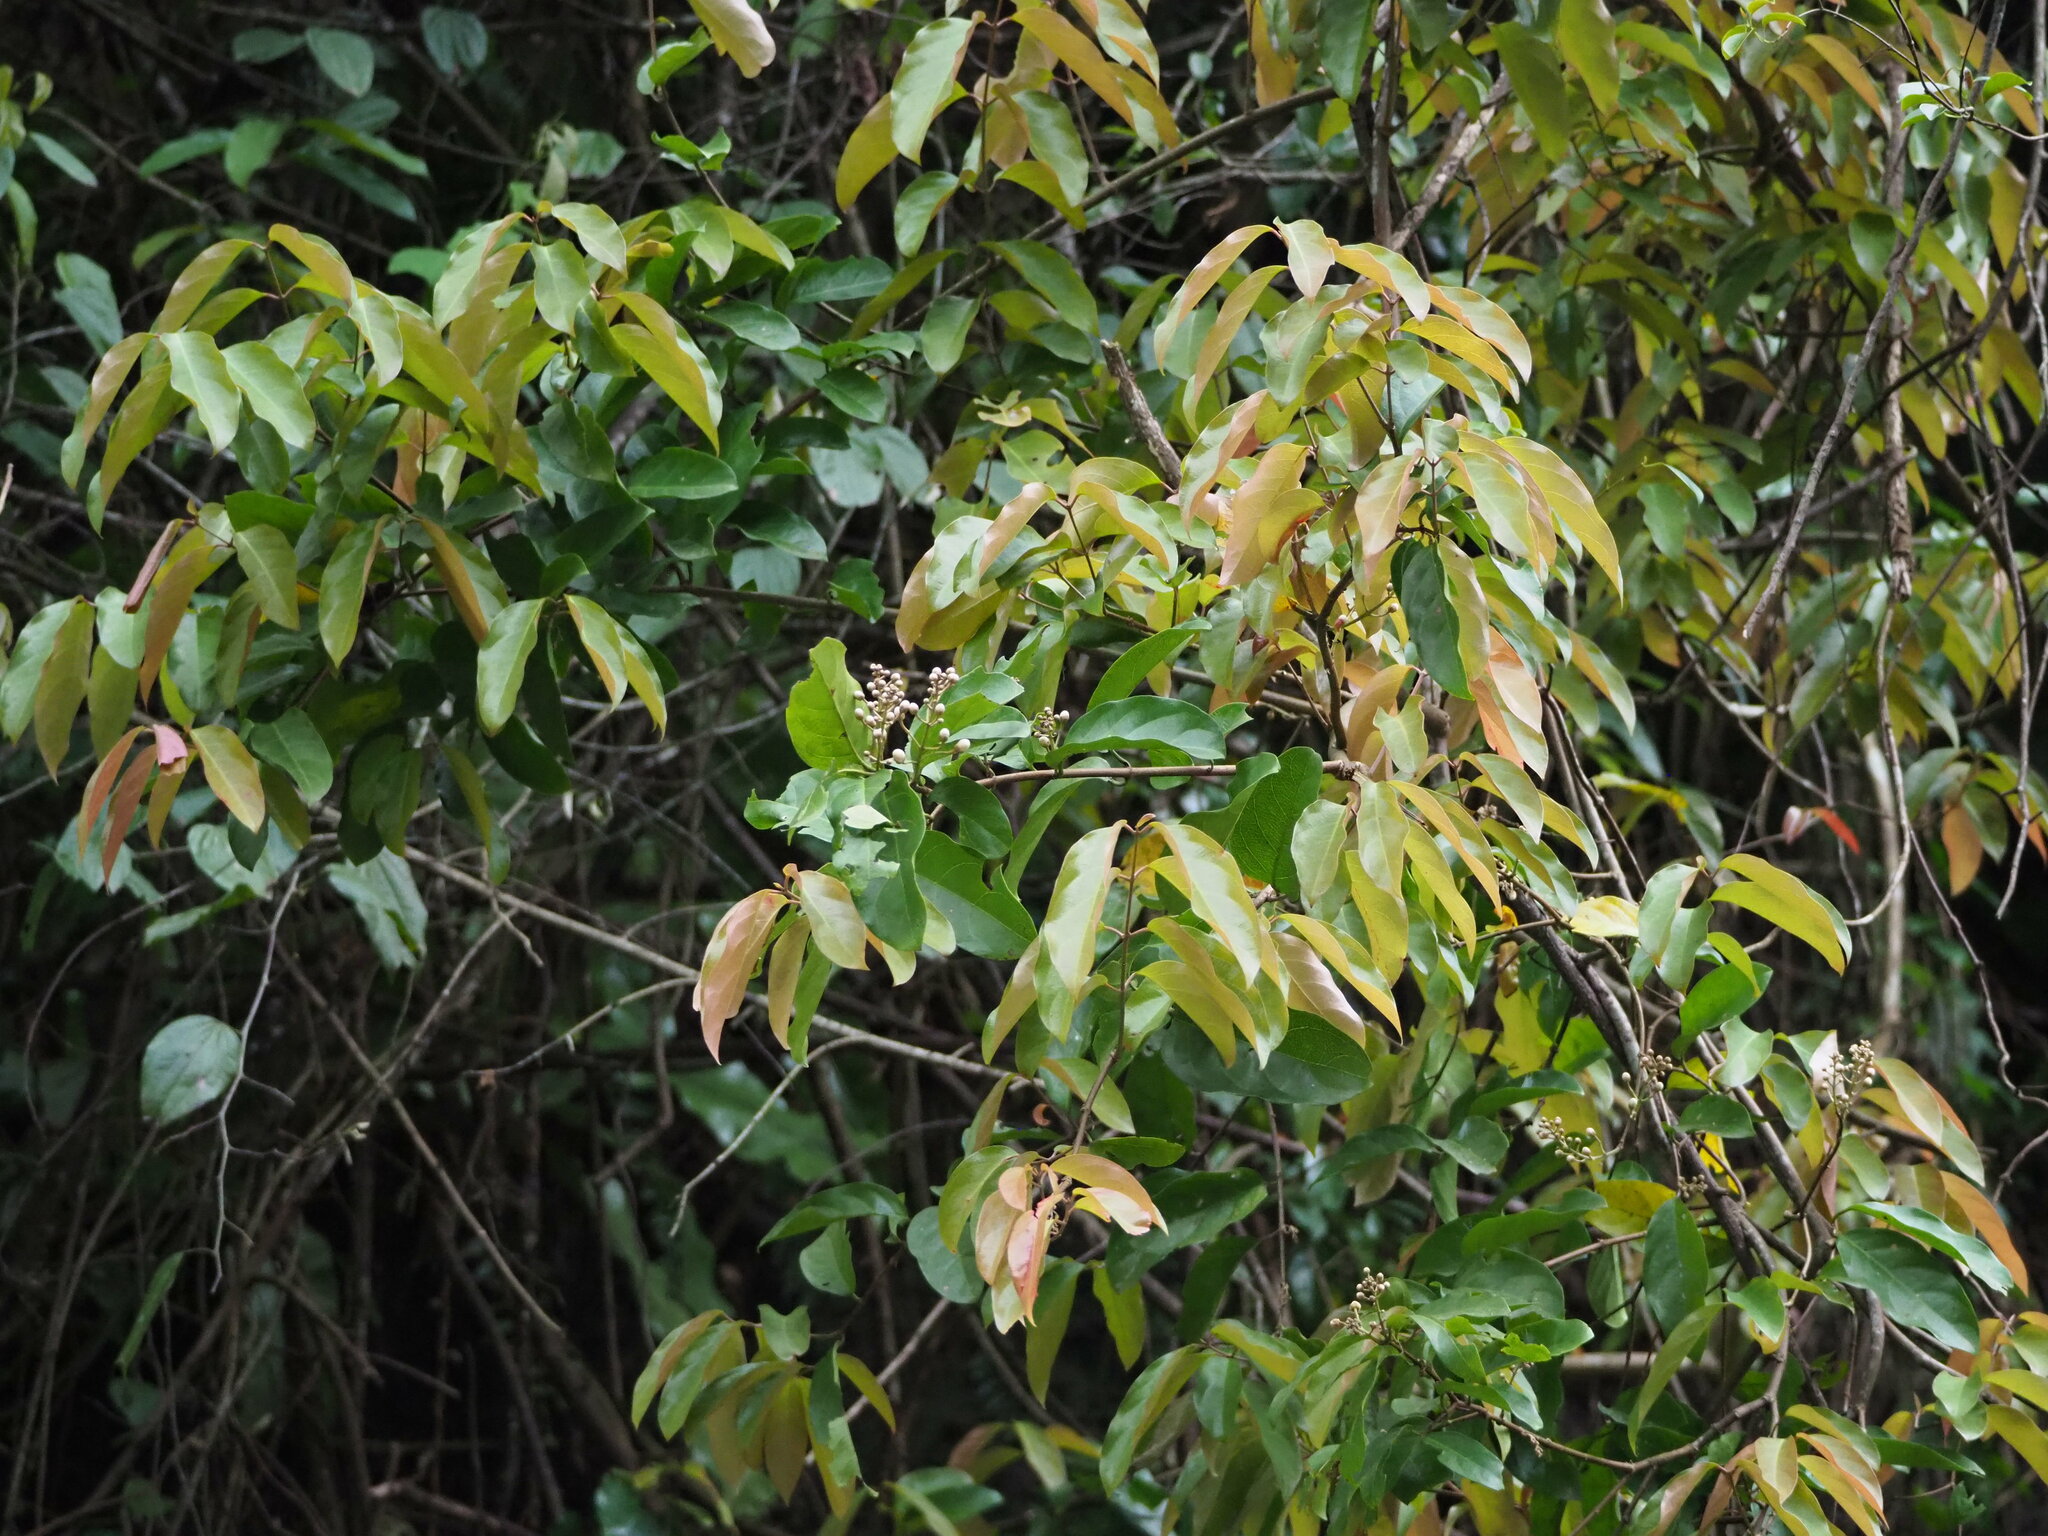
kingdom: Plantae
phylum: Tracheophyta
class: Magnoliopsida
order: Malpighiales
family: Malpighiaceae
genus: Hiptage
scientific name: Hiptage benghalensis
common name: Hiptage
